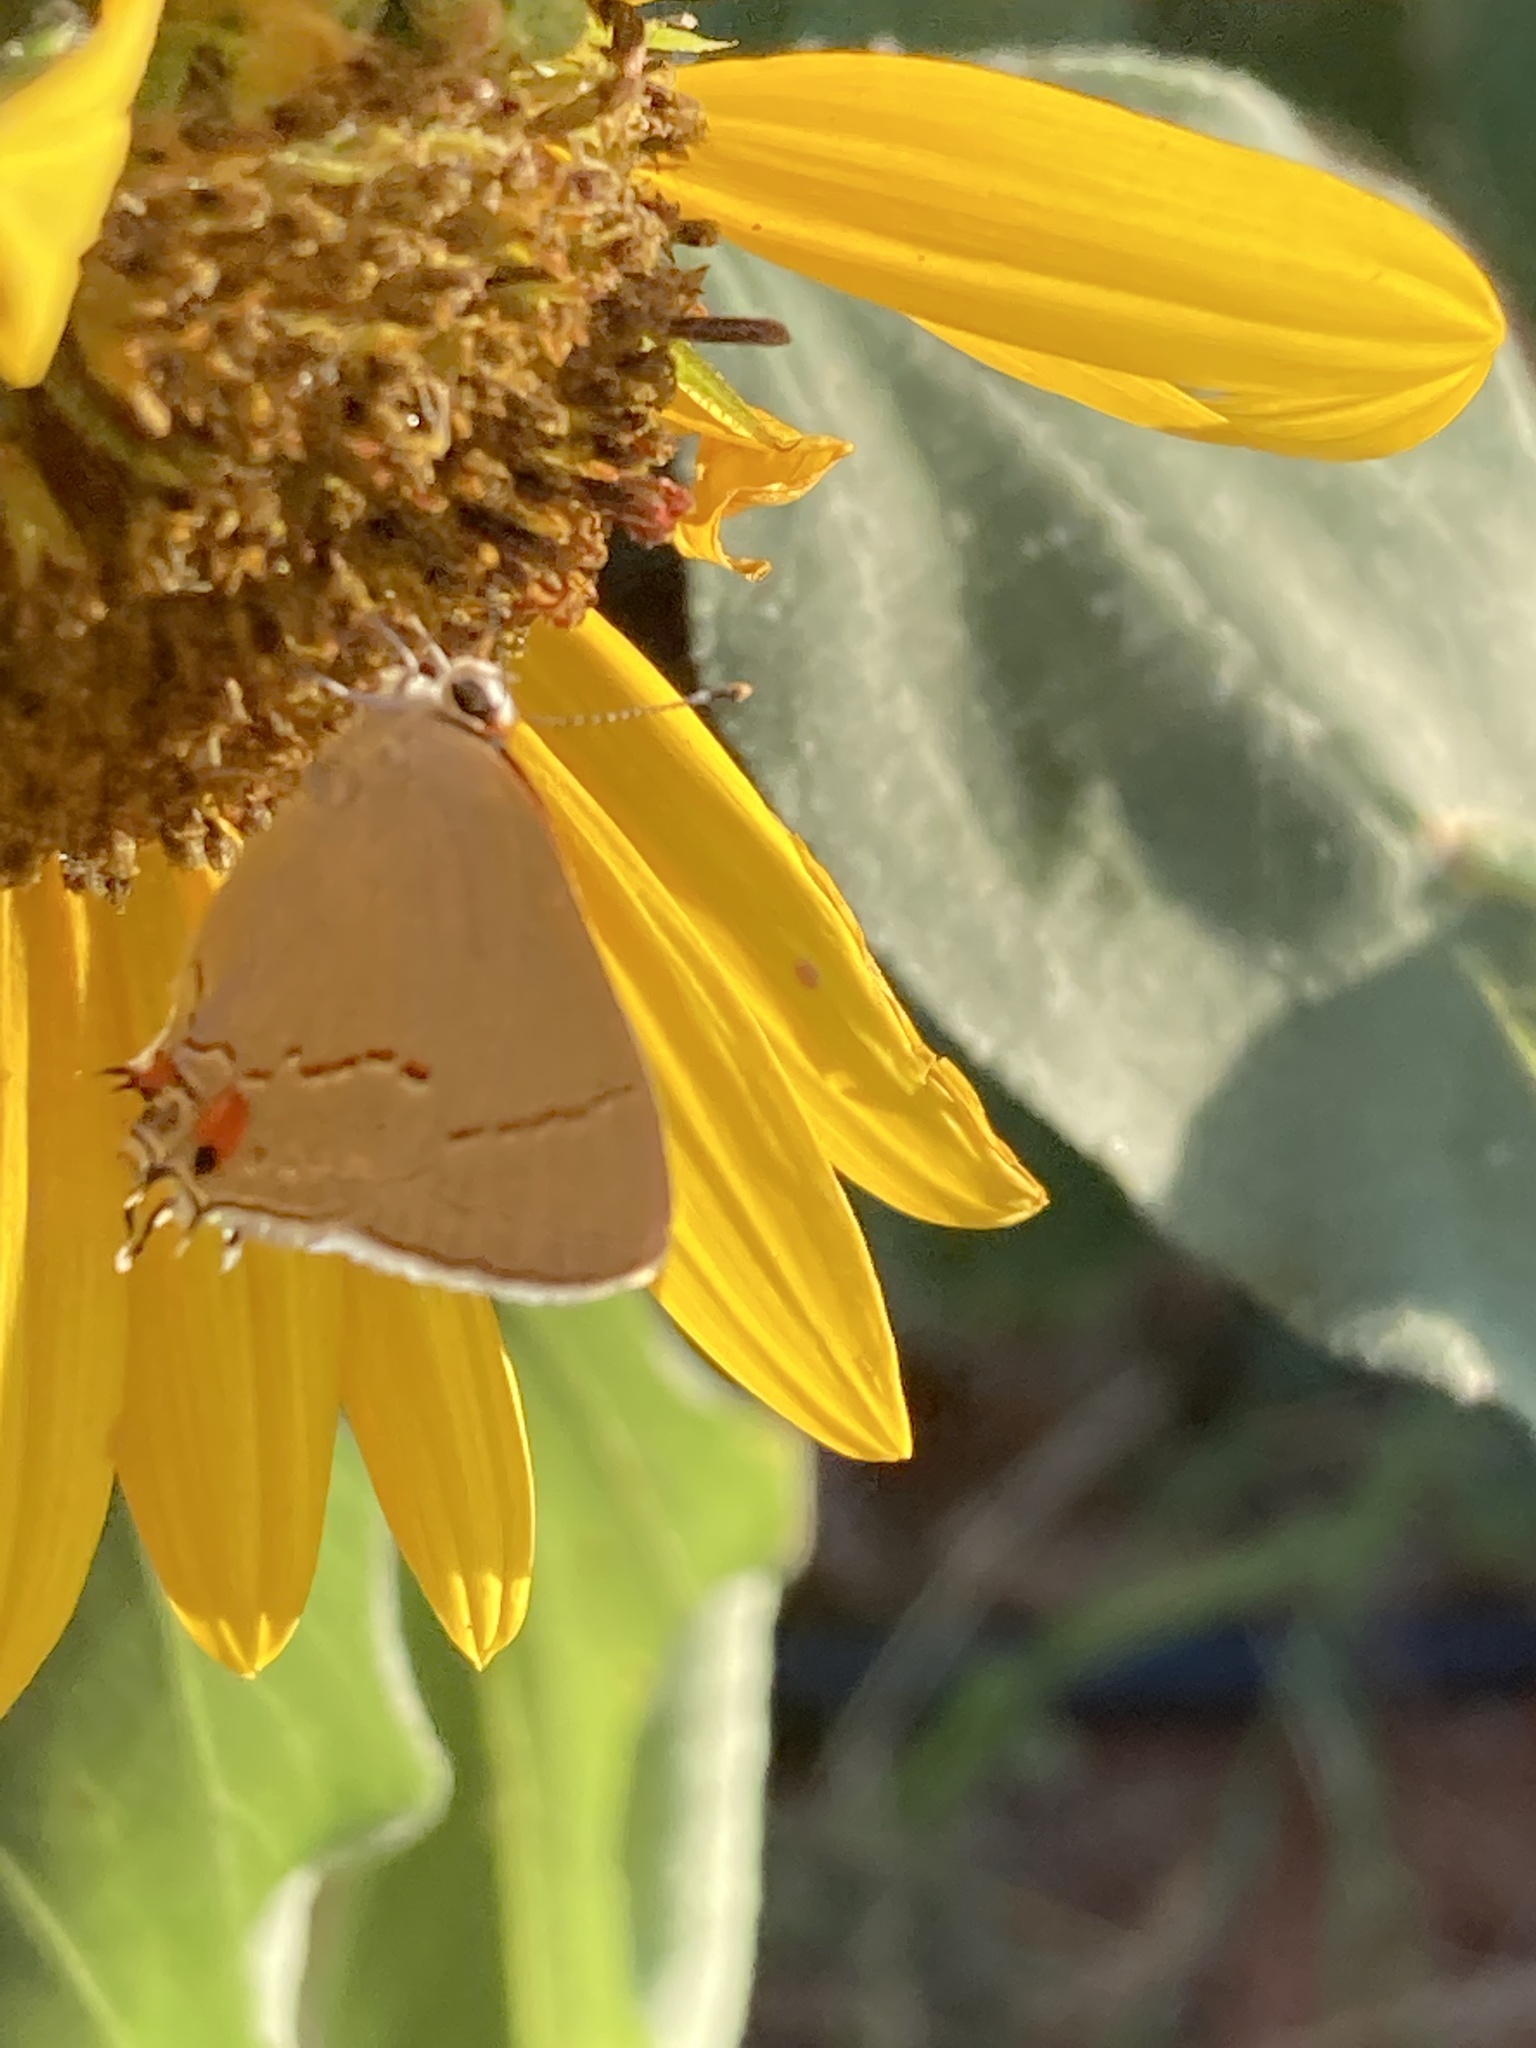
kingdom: Animalia
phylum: Arthropoda
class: Insecta
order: Lepidoptera
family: Lycaenidae
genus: Strymon
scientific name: Strymon melinus
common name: Gray hairstreak
